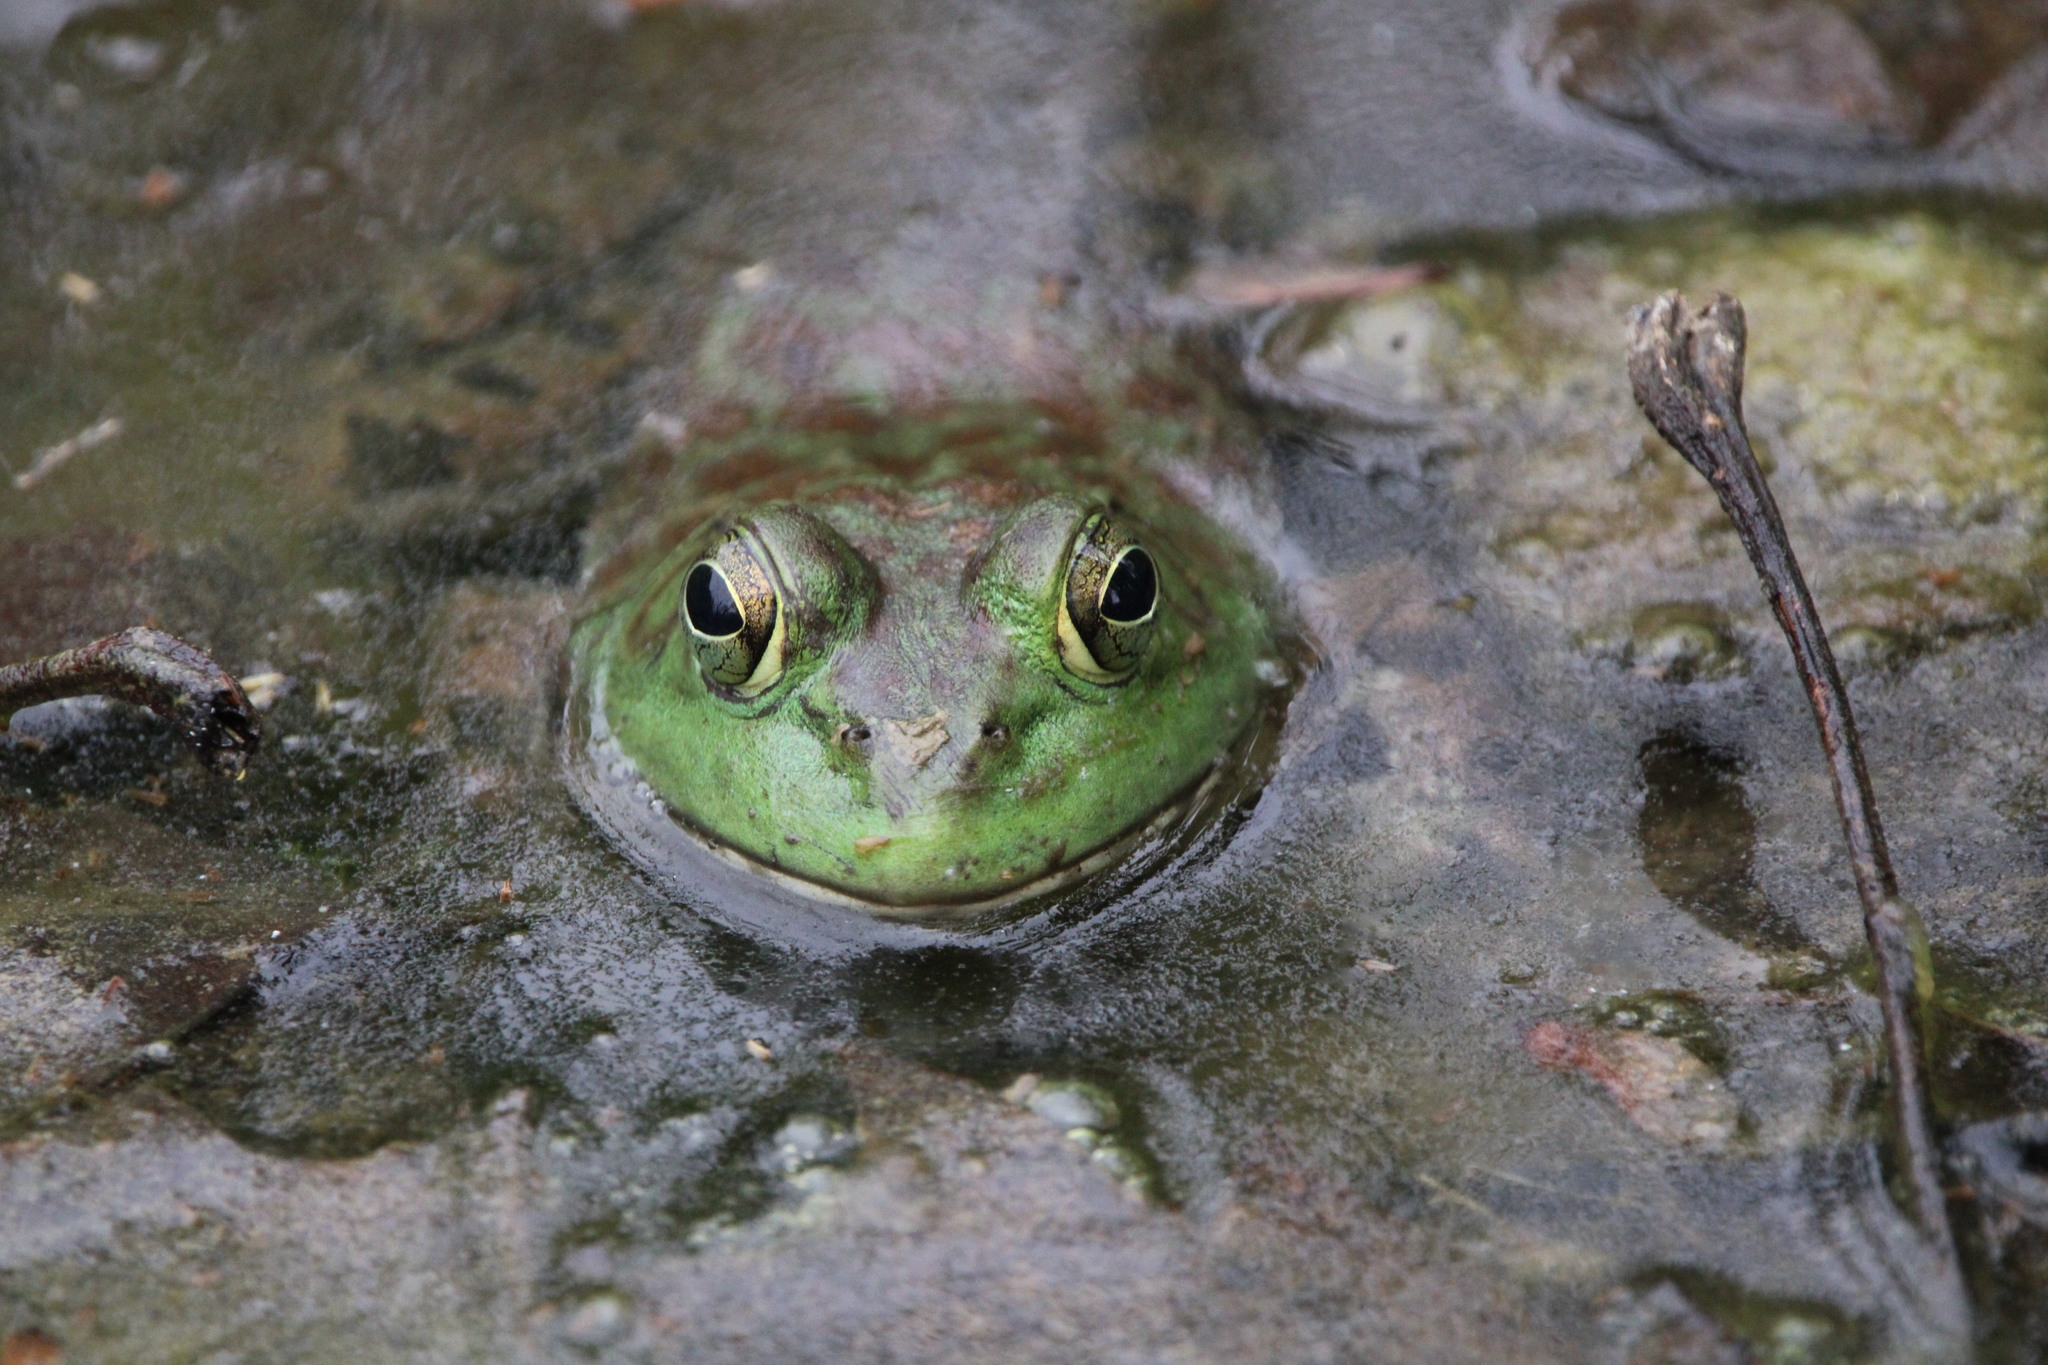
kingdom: Animalia
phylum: Chordata
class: Amphibia
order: Anura
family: Ranidae
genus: Lithobates
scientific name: Lithobates catesbeianus
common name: American bullfrog
